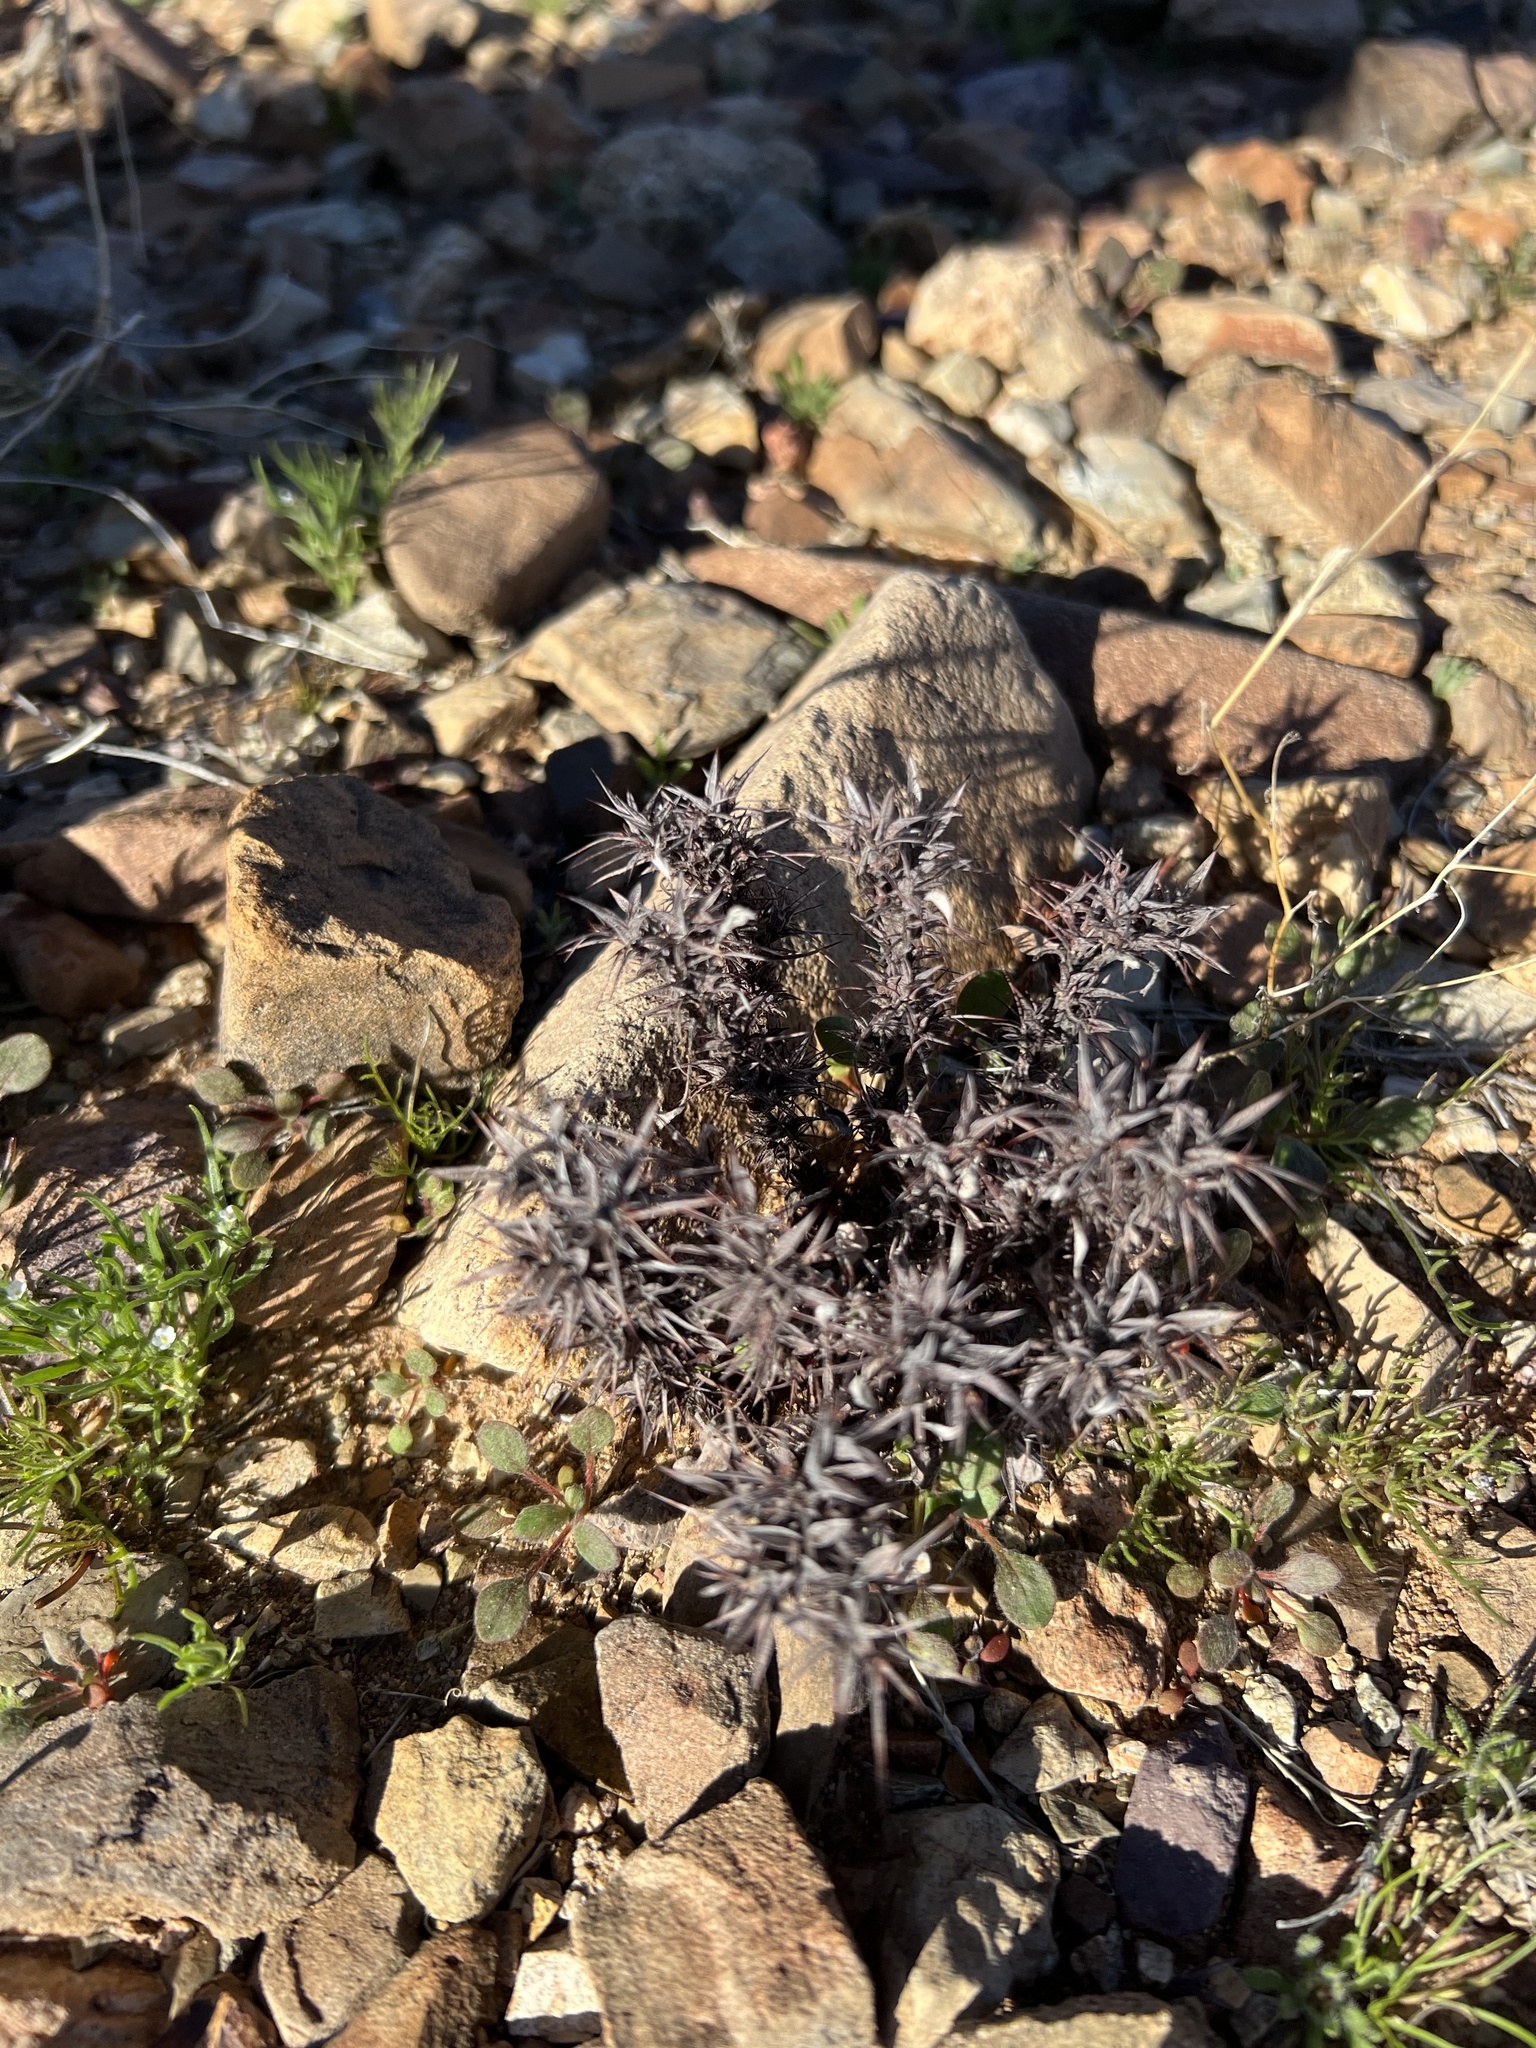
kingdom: Plantae
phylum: Tracheophyta
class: Magnoliopsida
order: Caryophyllales
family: Polygonaceae
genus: Chorizanthe
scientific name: Chorizanthe rigida
